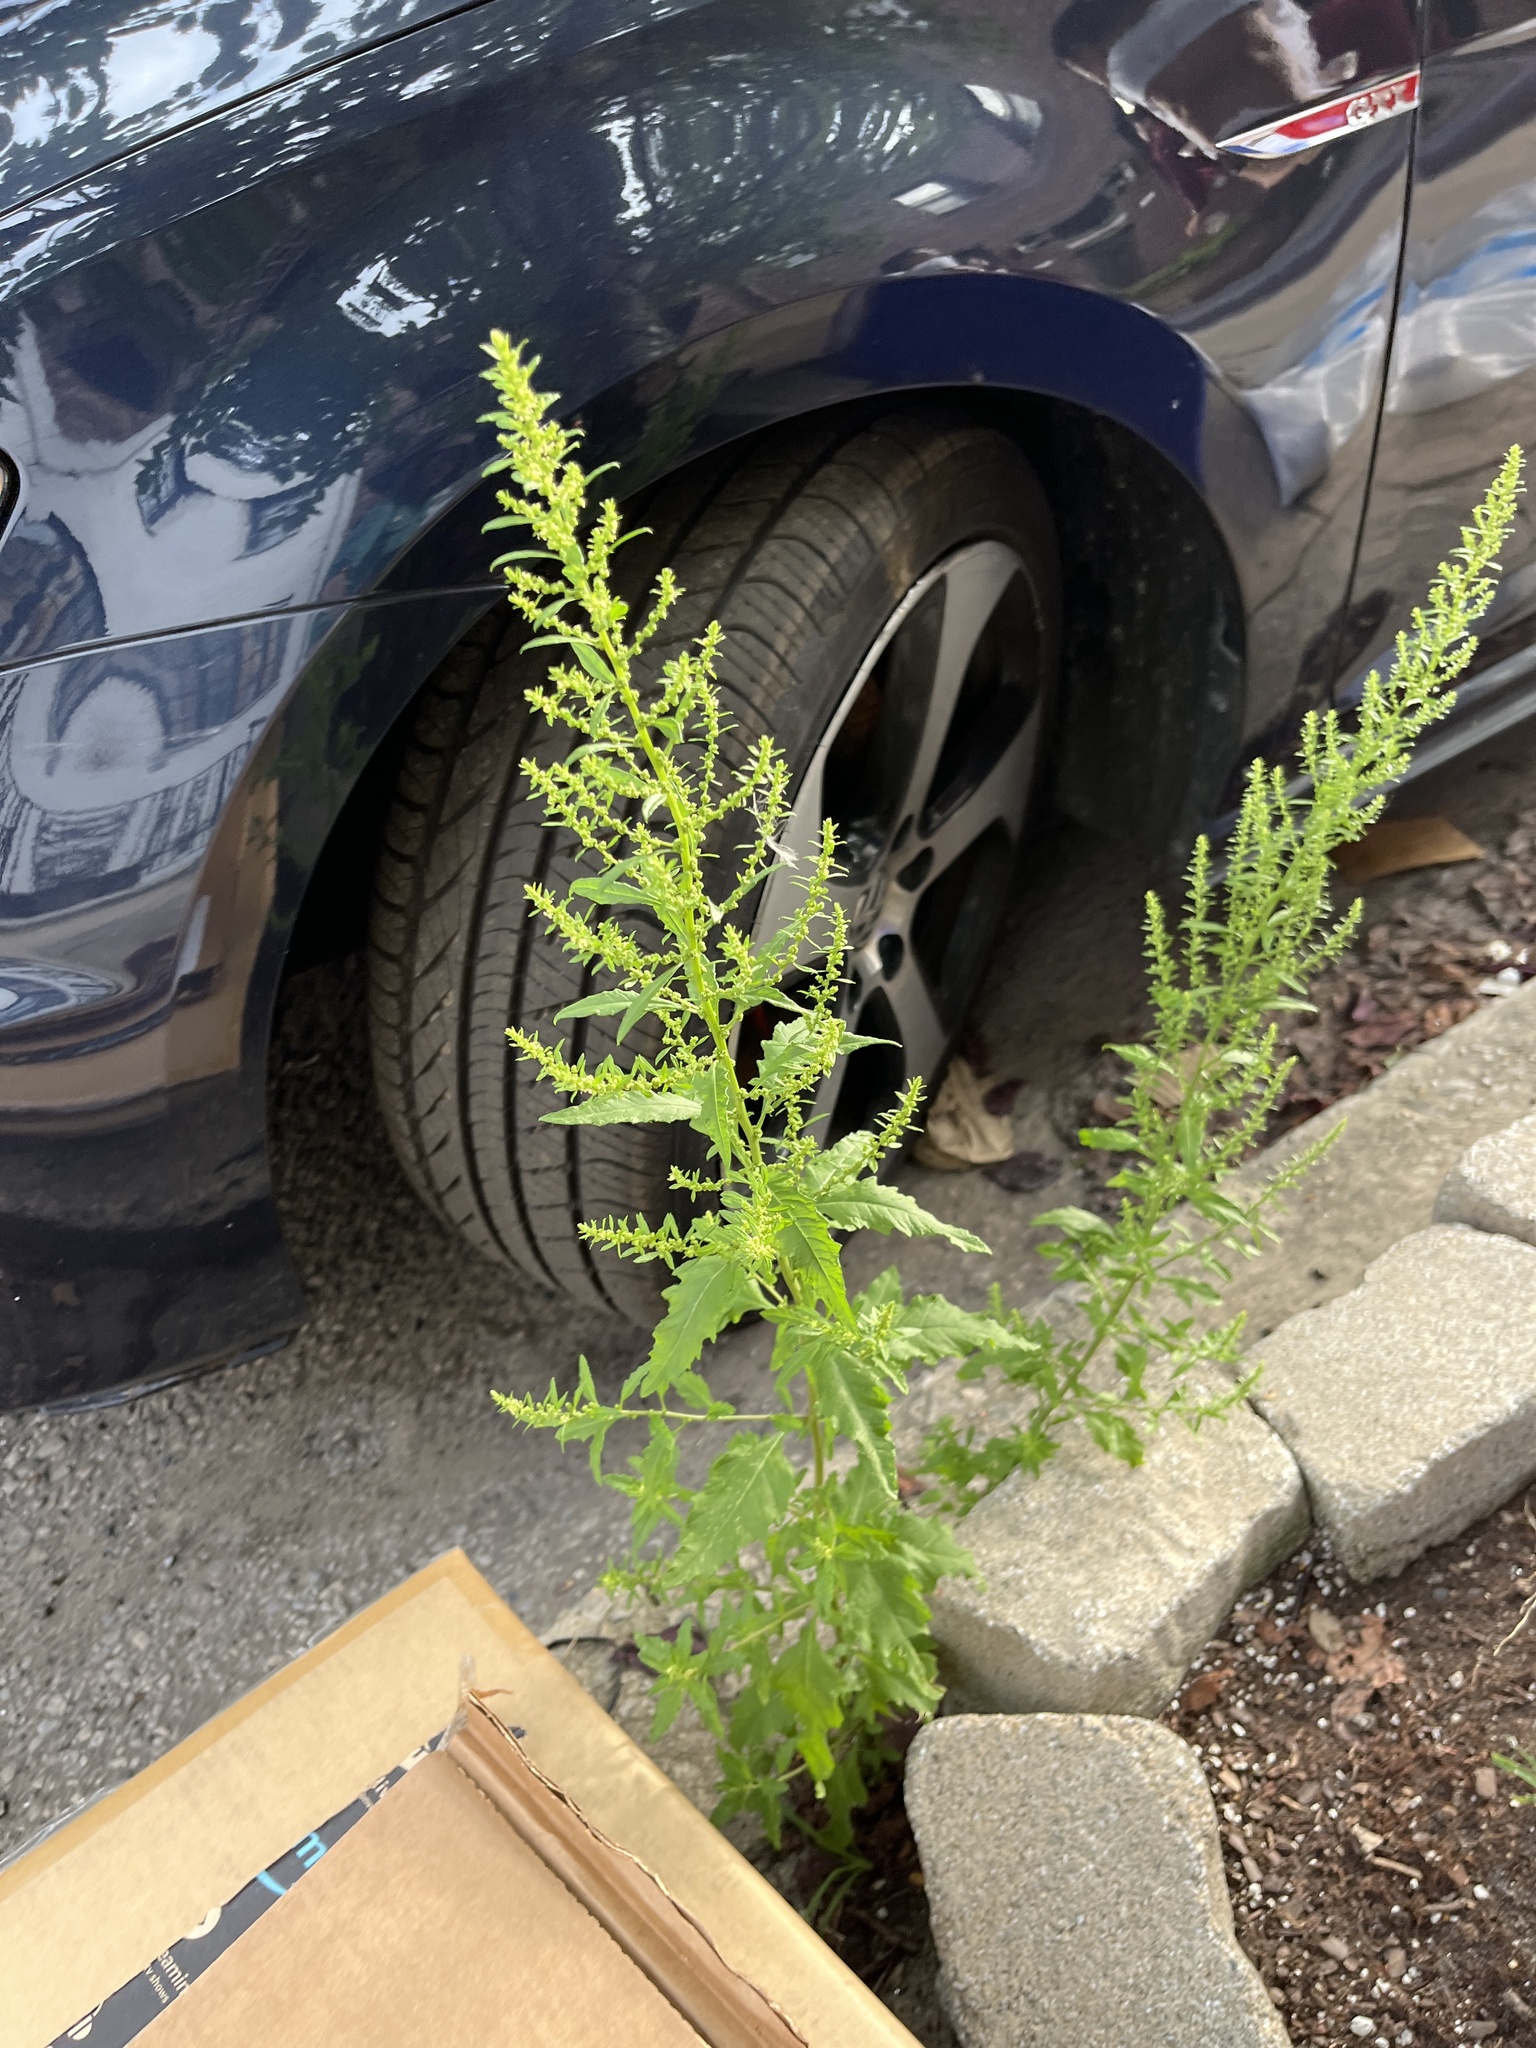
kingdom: Plantae
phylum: Tracheophyta
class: Magnoliopsida
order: Caryophyllales
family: Amaranthaceae
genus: Dysphania
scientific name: Dysphania ambrosioides
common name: Wormseed
